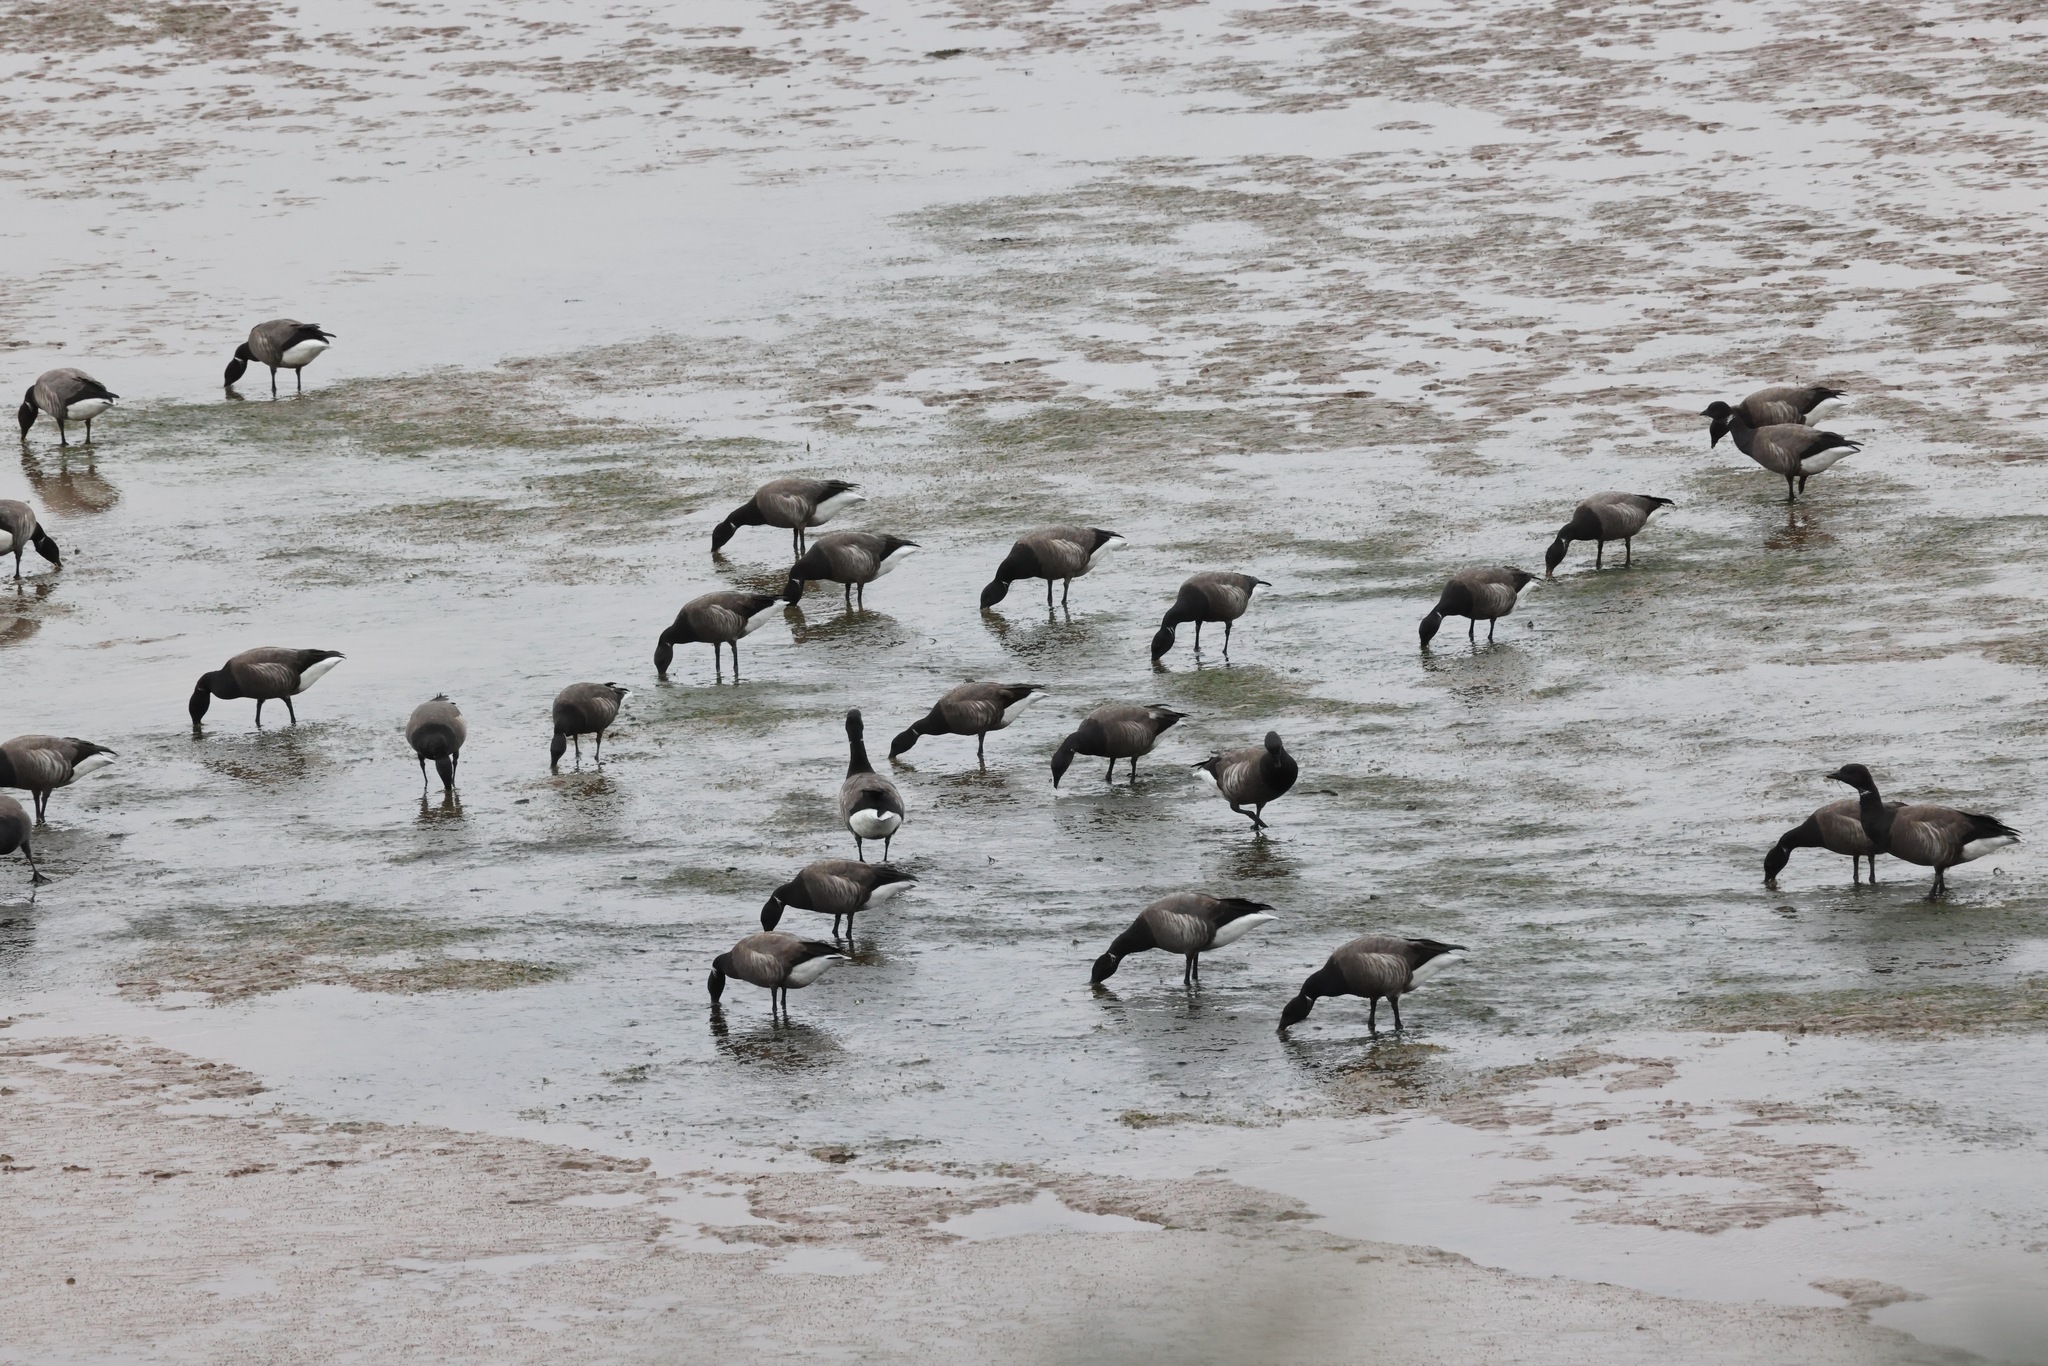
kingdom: Animalia
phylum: Chordata
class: Aves
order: Anseriformes
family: Anatidae
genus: Branta
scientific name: Branta bernicla
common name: Brant goose
